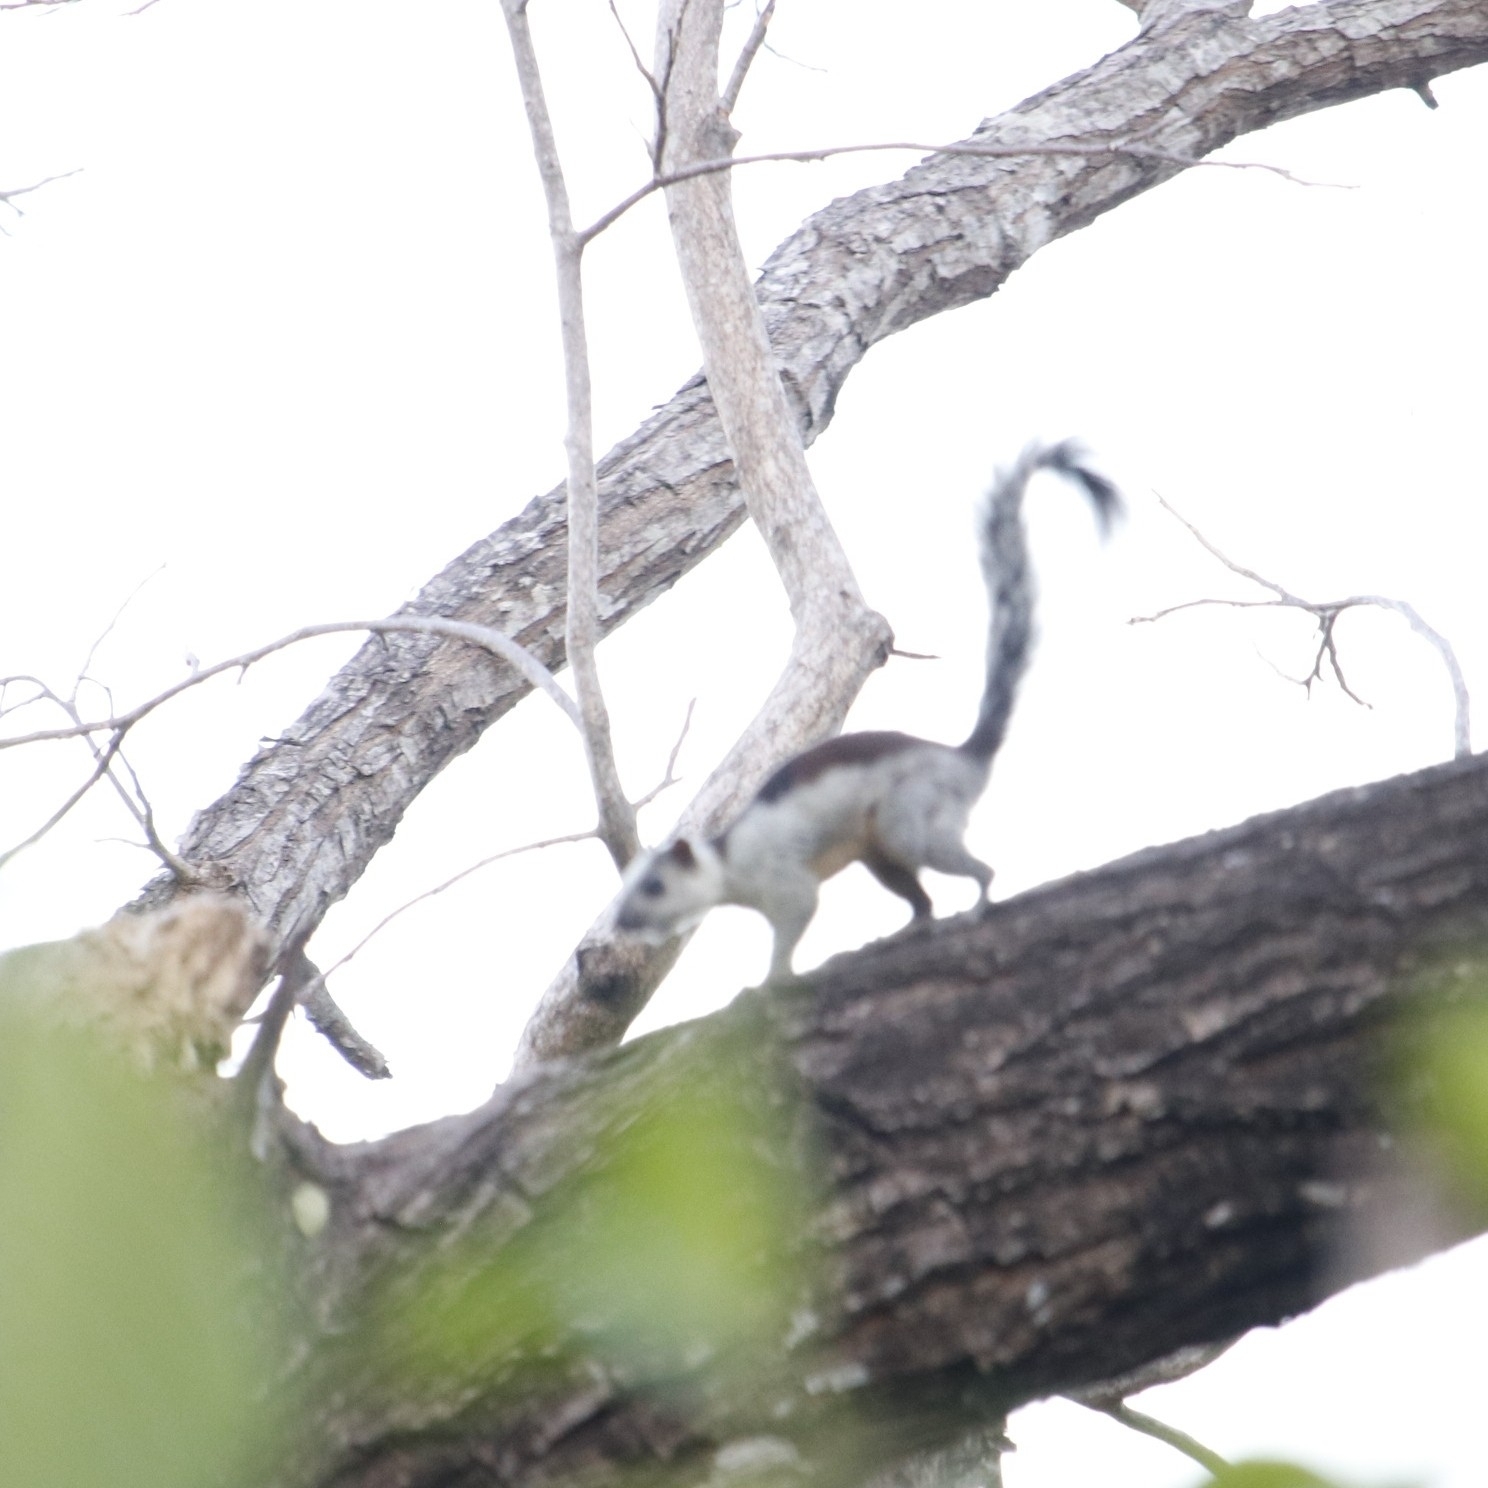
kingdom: Animalia
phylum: Chordata
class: Mammalia
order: Rodentia
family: Sciuridae
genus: Sciurus
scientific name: Sciurus variegatoides
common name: Variegated squirrel
